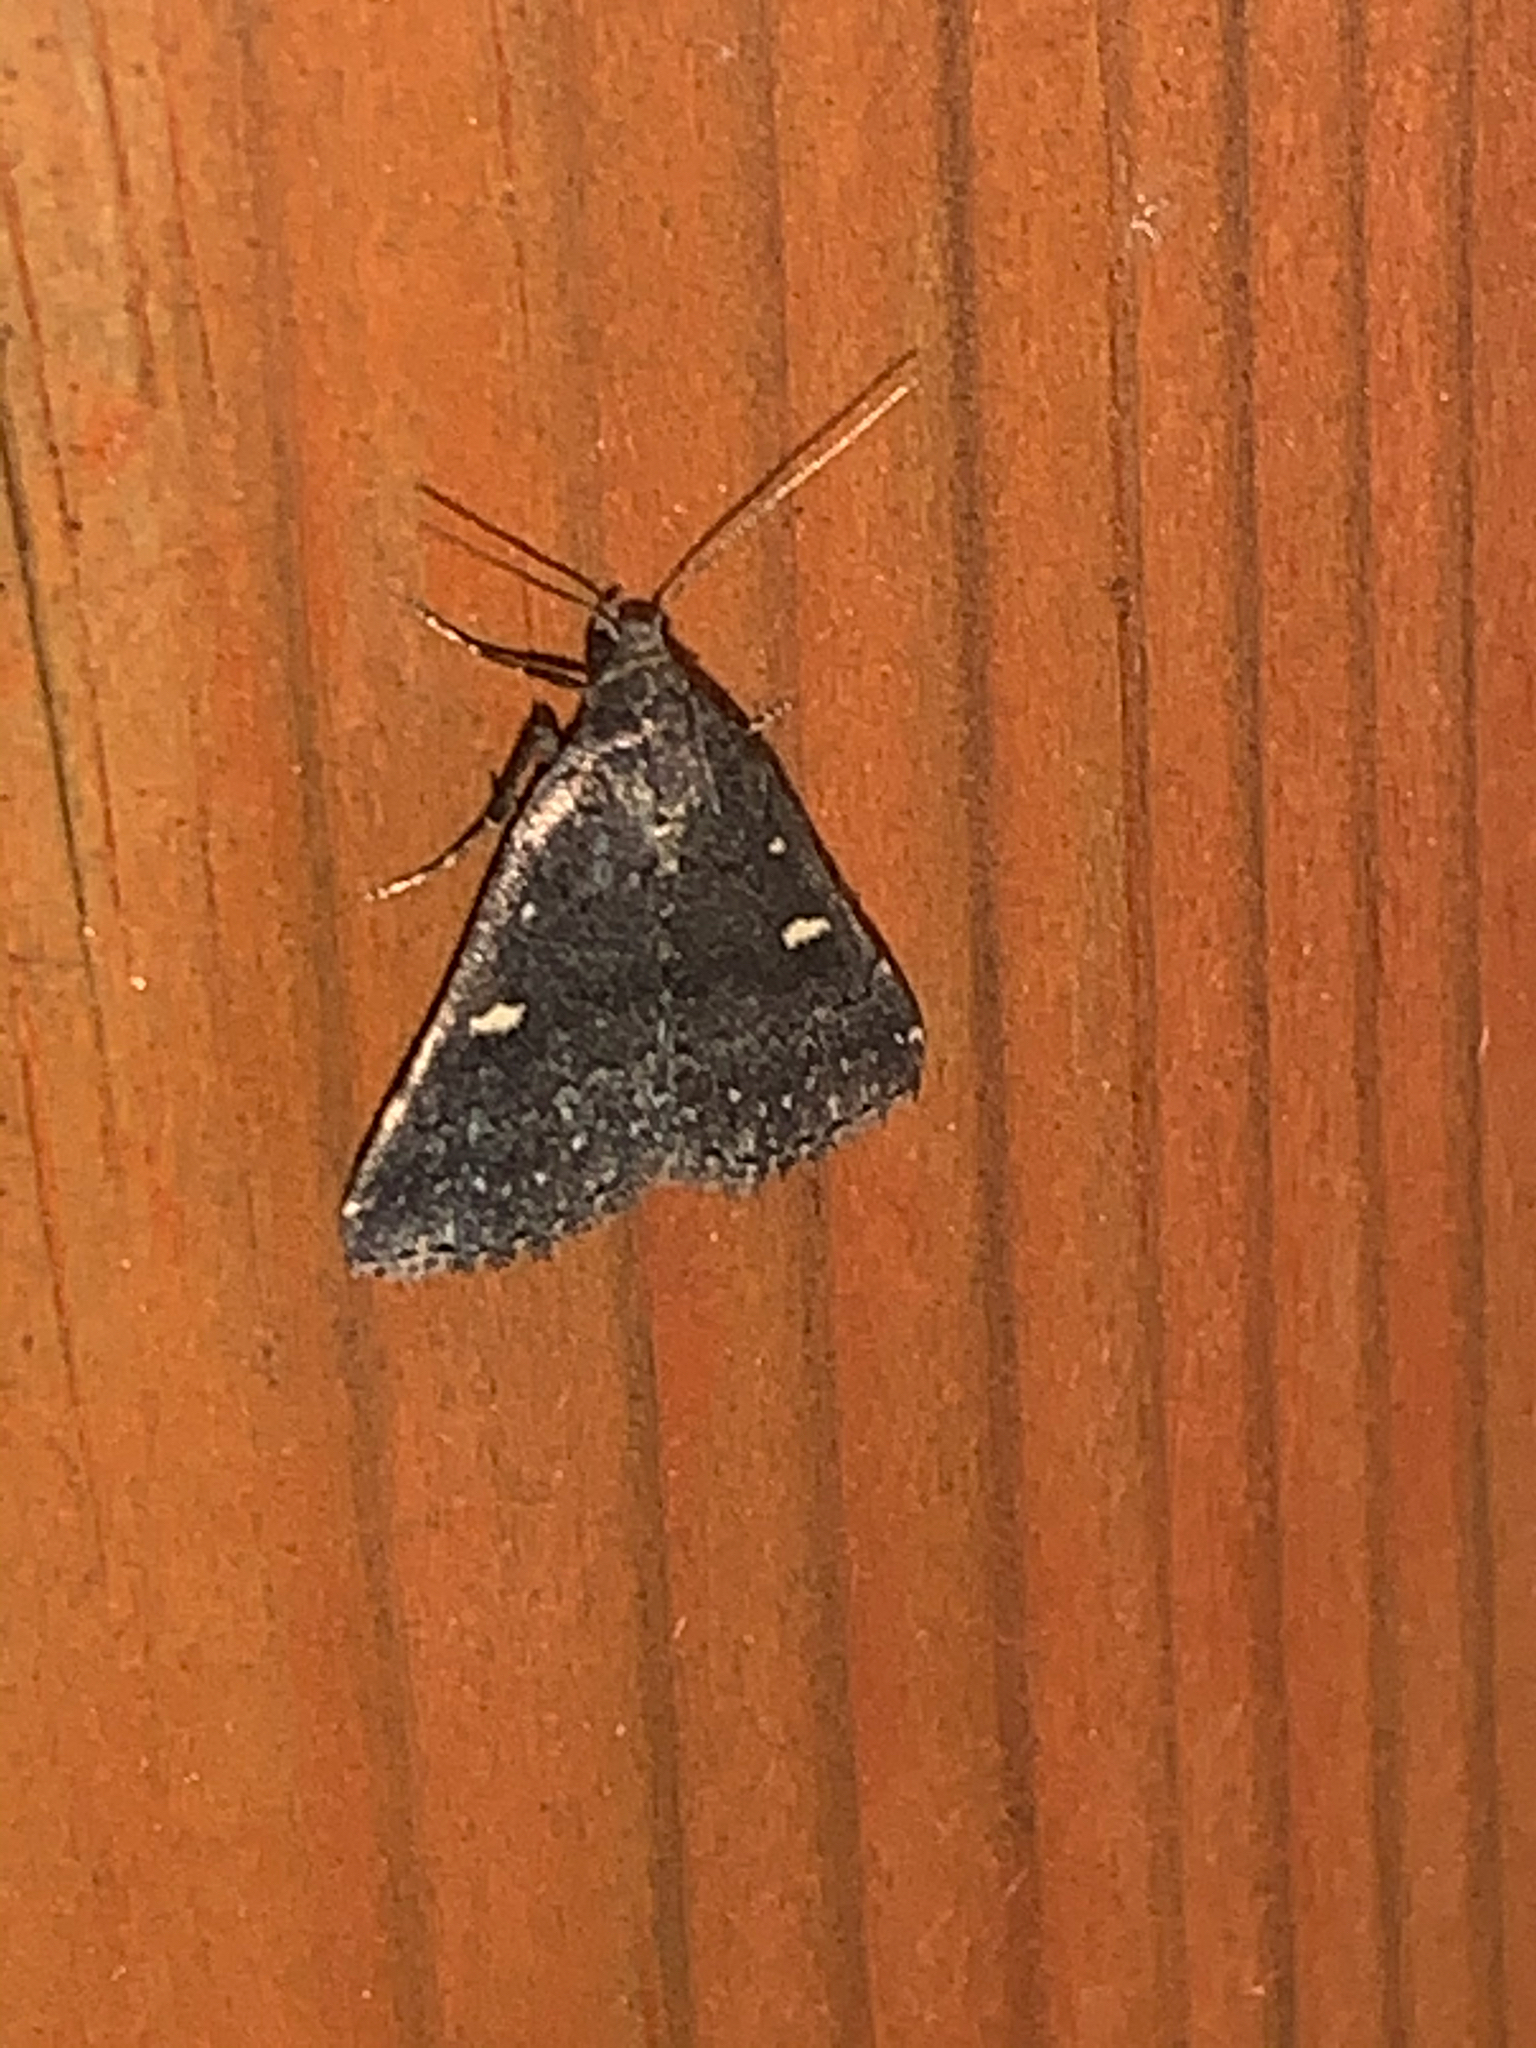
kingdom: Animalia
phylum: Arthropoda
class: Insecta
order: Lepidoptera
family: Erebidae
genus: Tetanolita
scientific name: Tetanolita mynesalis
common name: Smoky tetanolita moth
